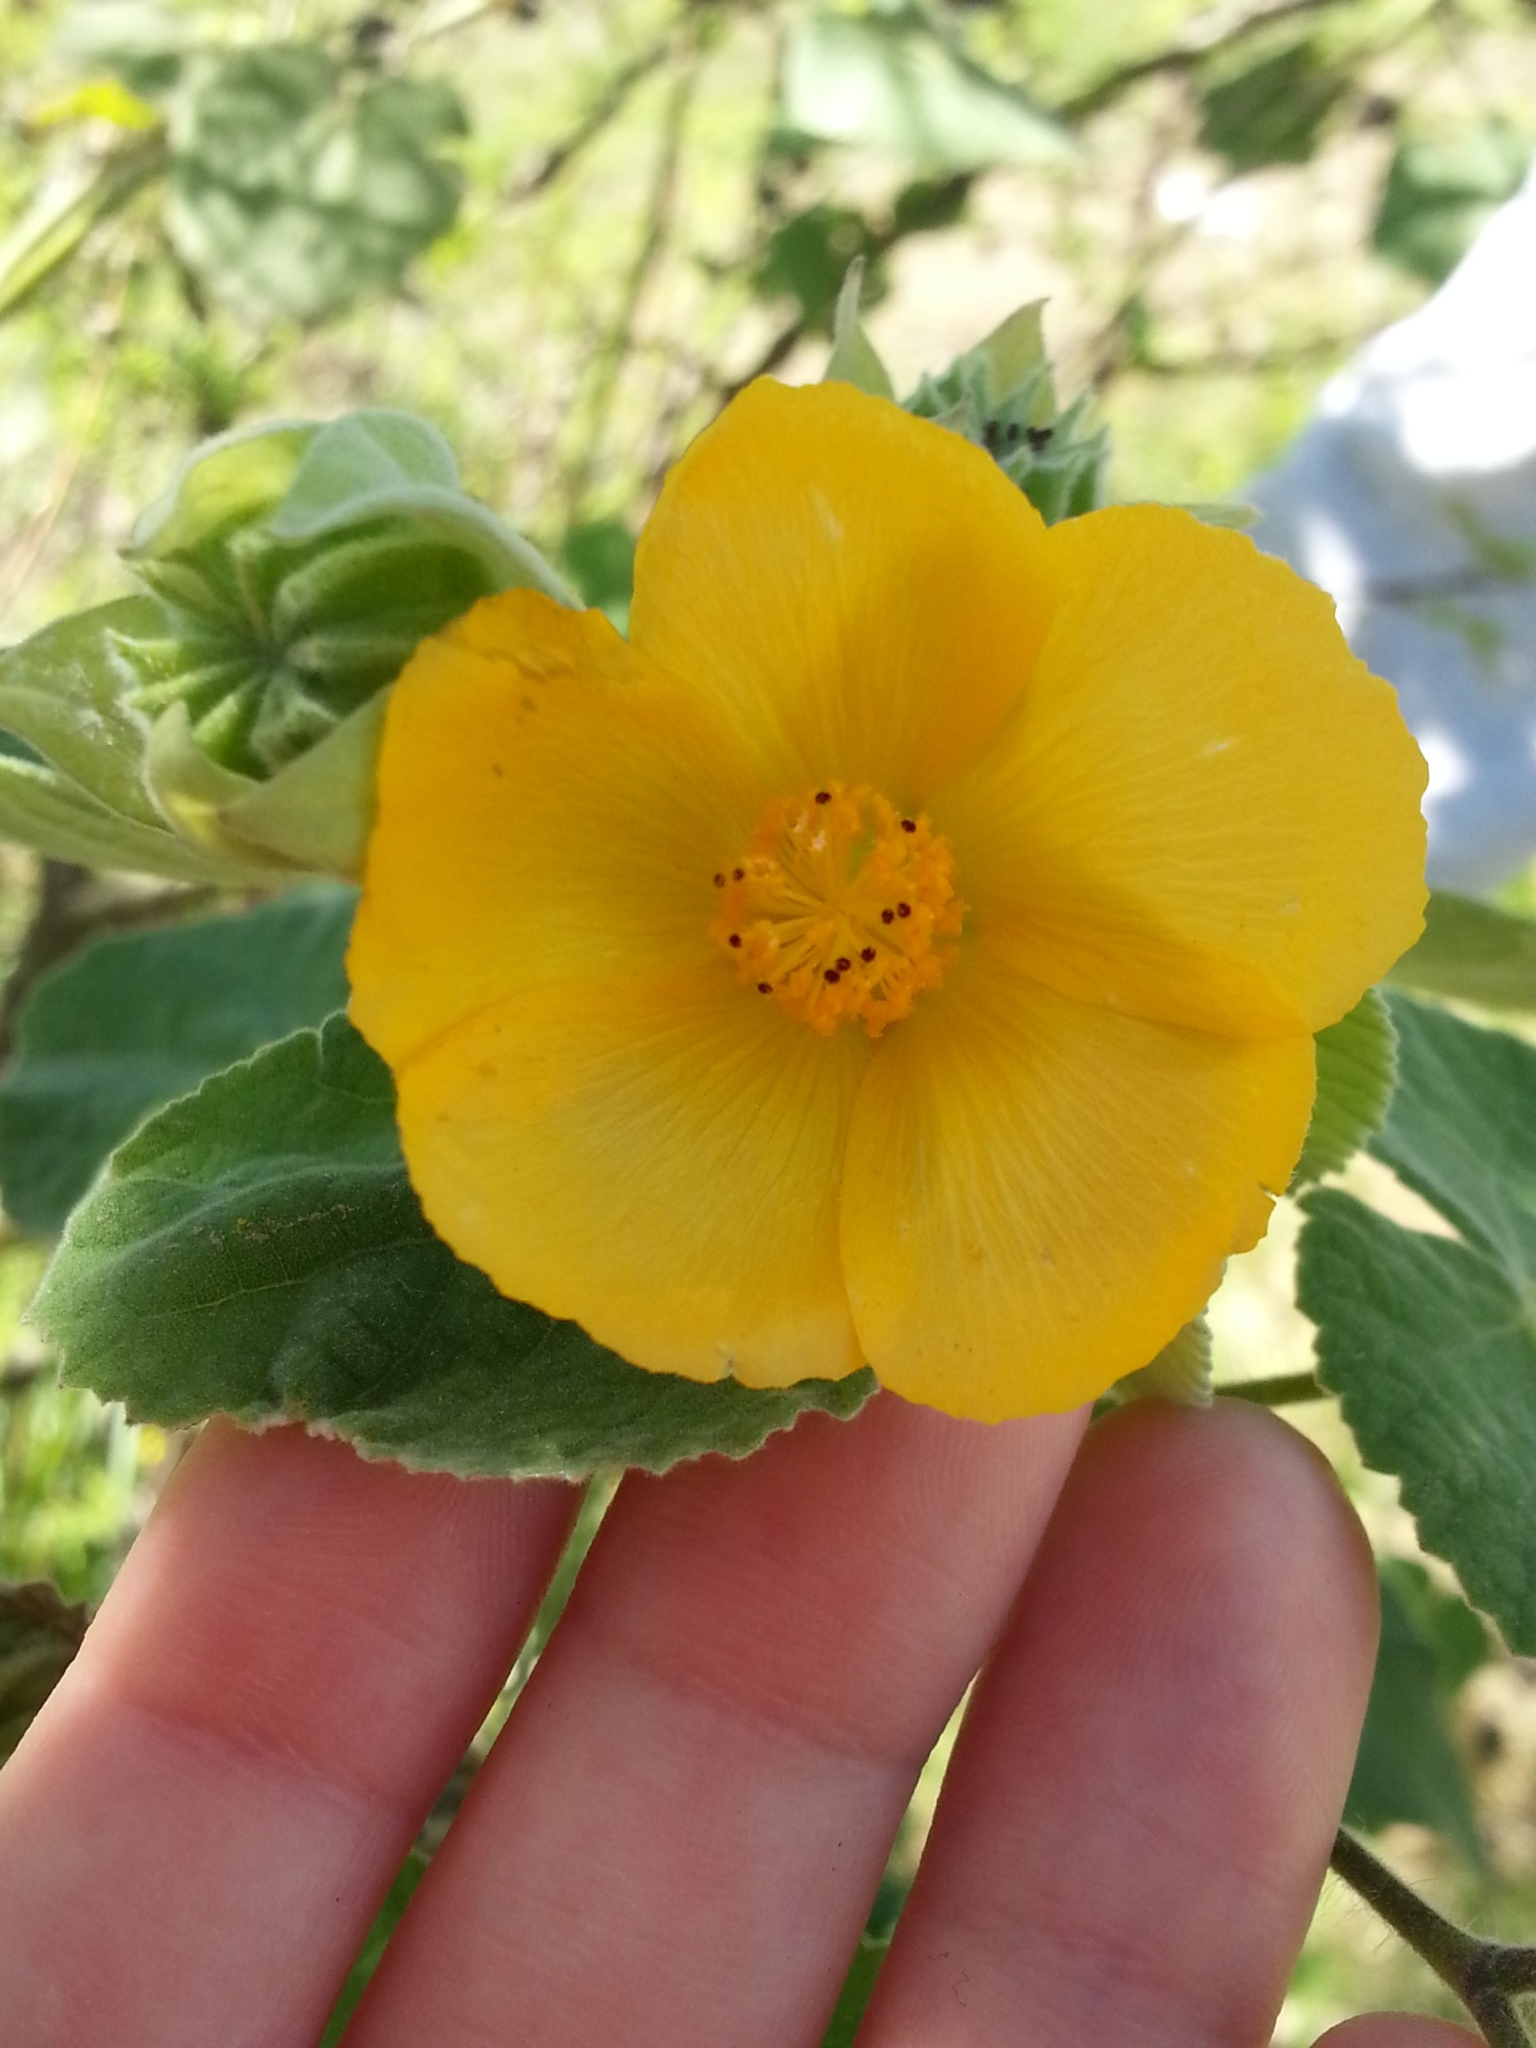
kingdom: Plantae
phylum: Tracheophyta
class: Magnoliopsida
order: Malvales
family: Malvaceae
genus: Abutilon
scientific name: Abutilon grandifolium
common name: Hairy abutilon
